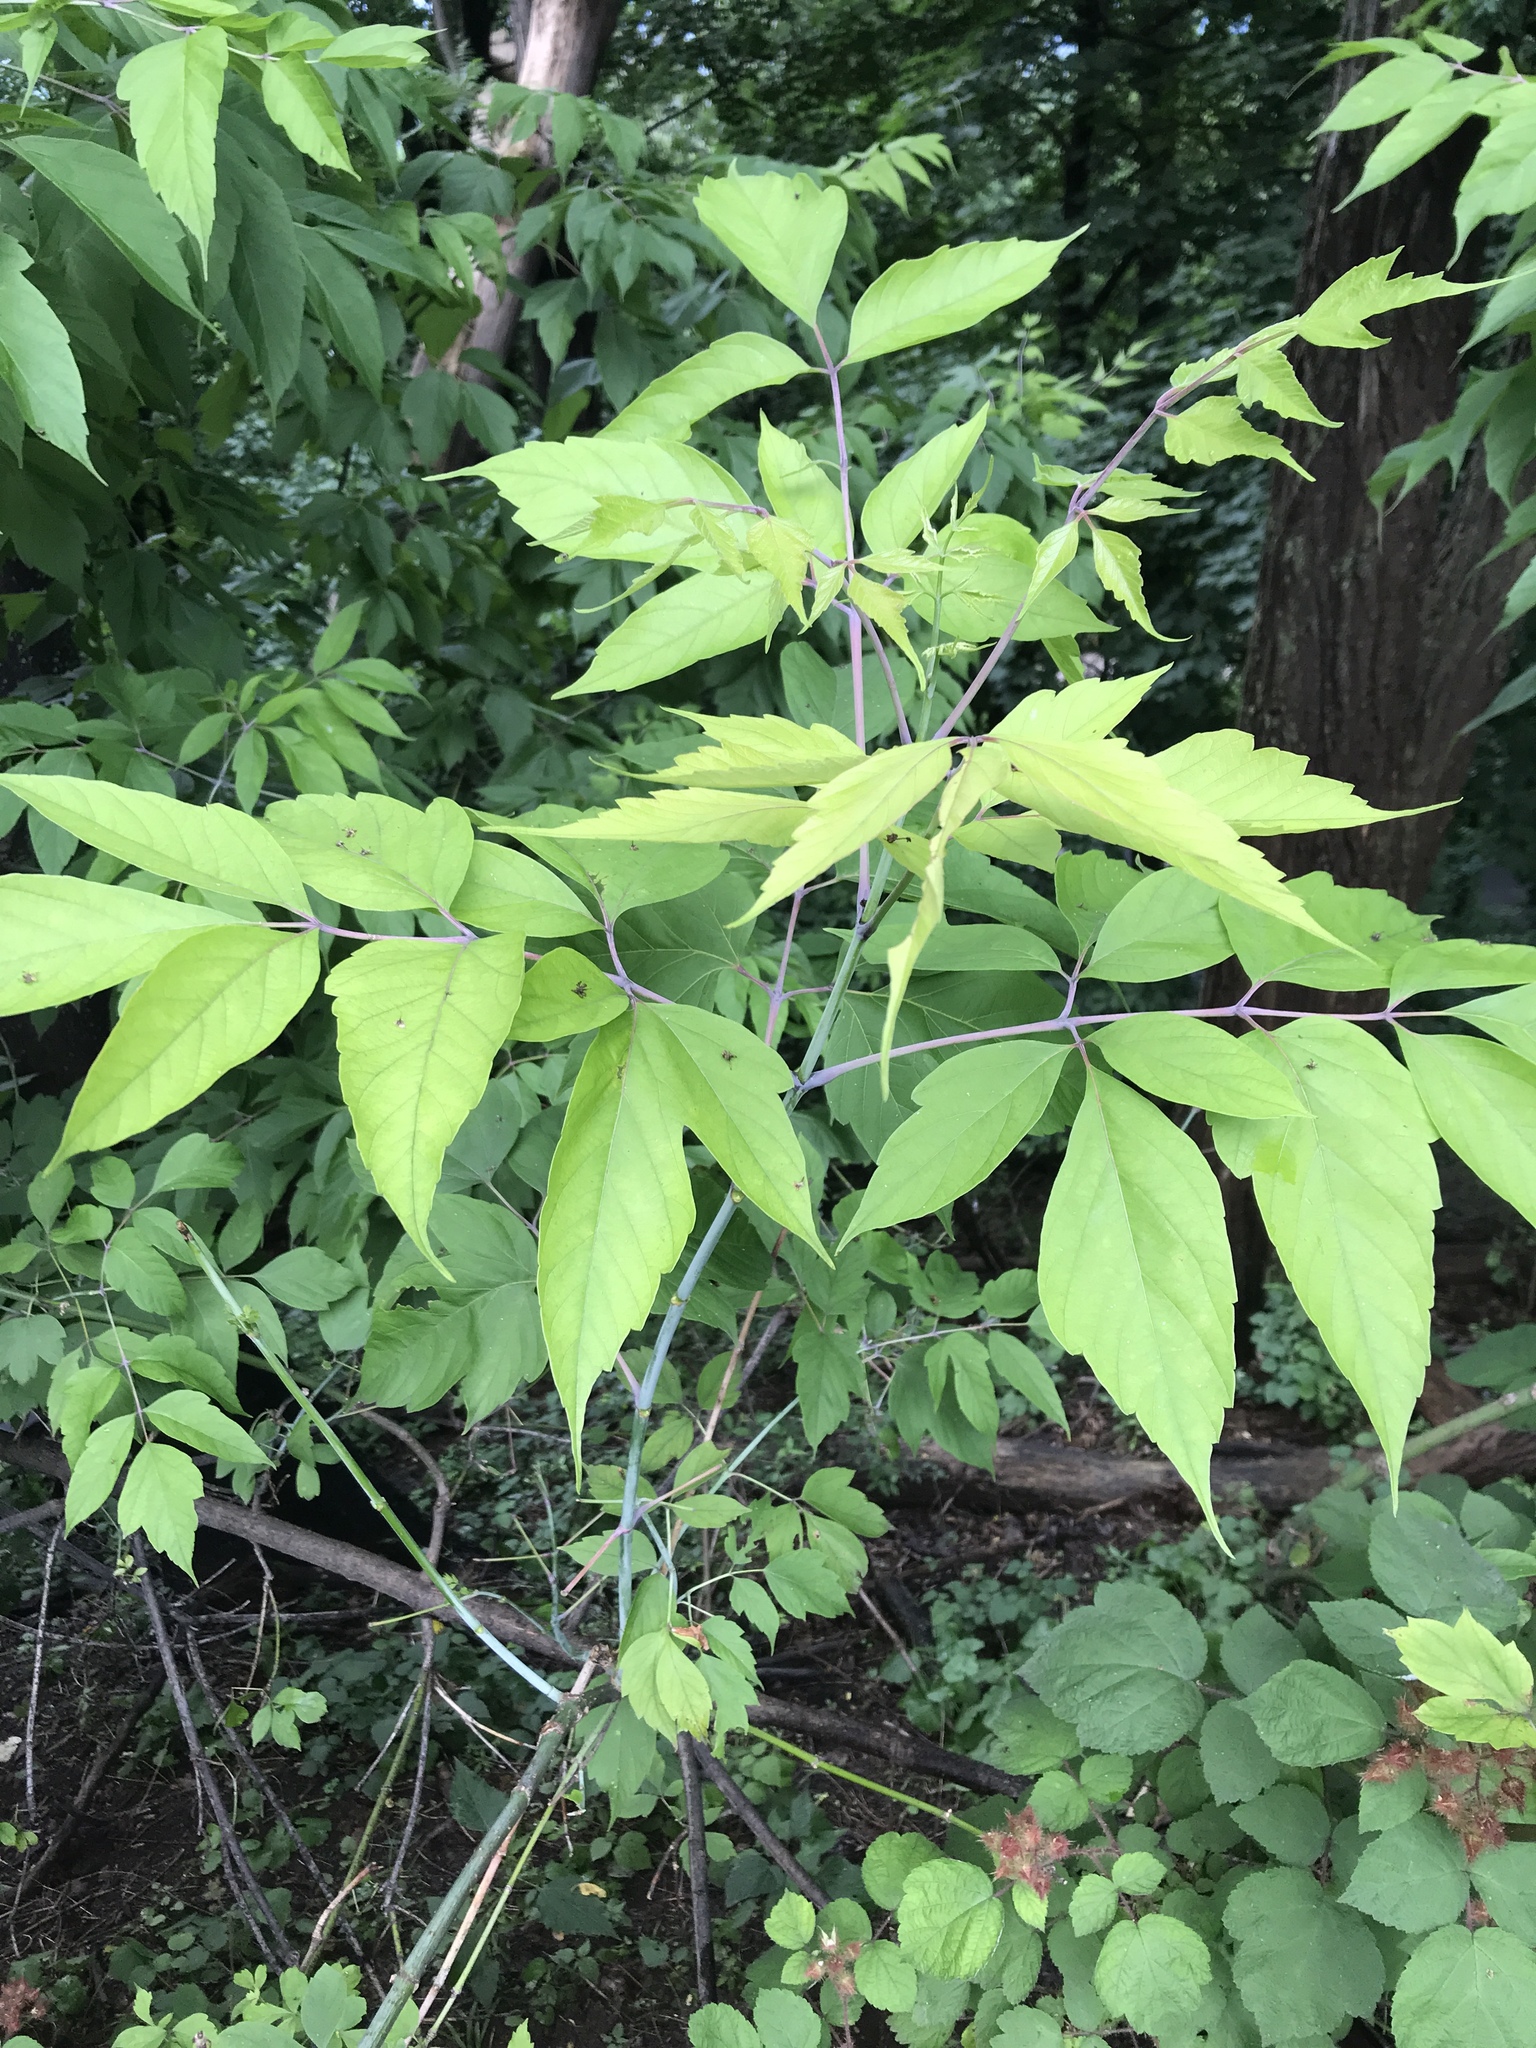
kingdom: Plantae
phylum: Tracheophyta
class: Magnoliopsida
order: Sapindales
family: Sapindaceae
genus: Acer
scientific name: Acer negundo
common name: Ashleaf maple
